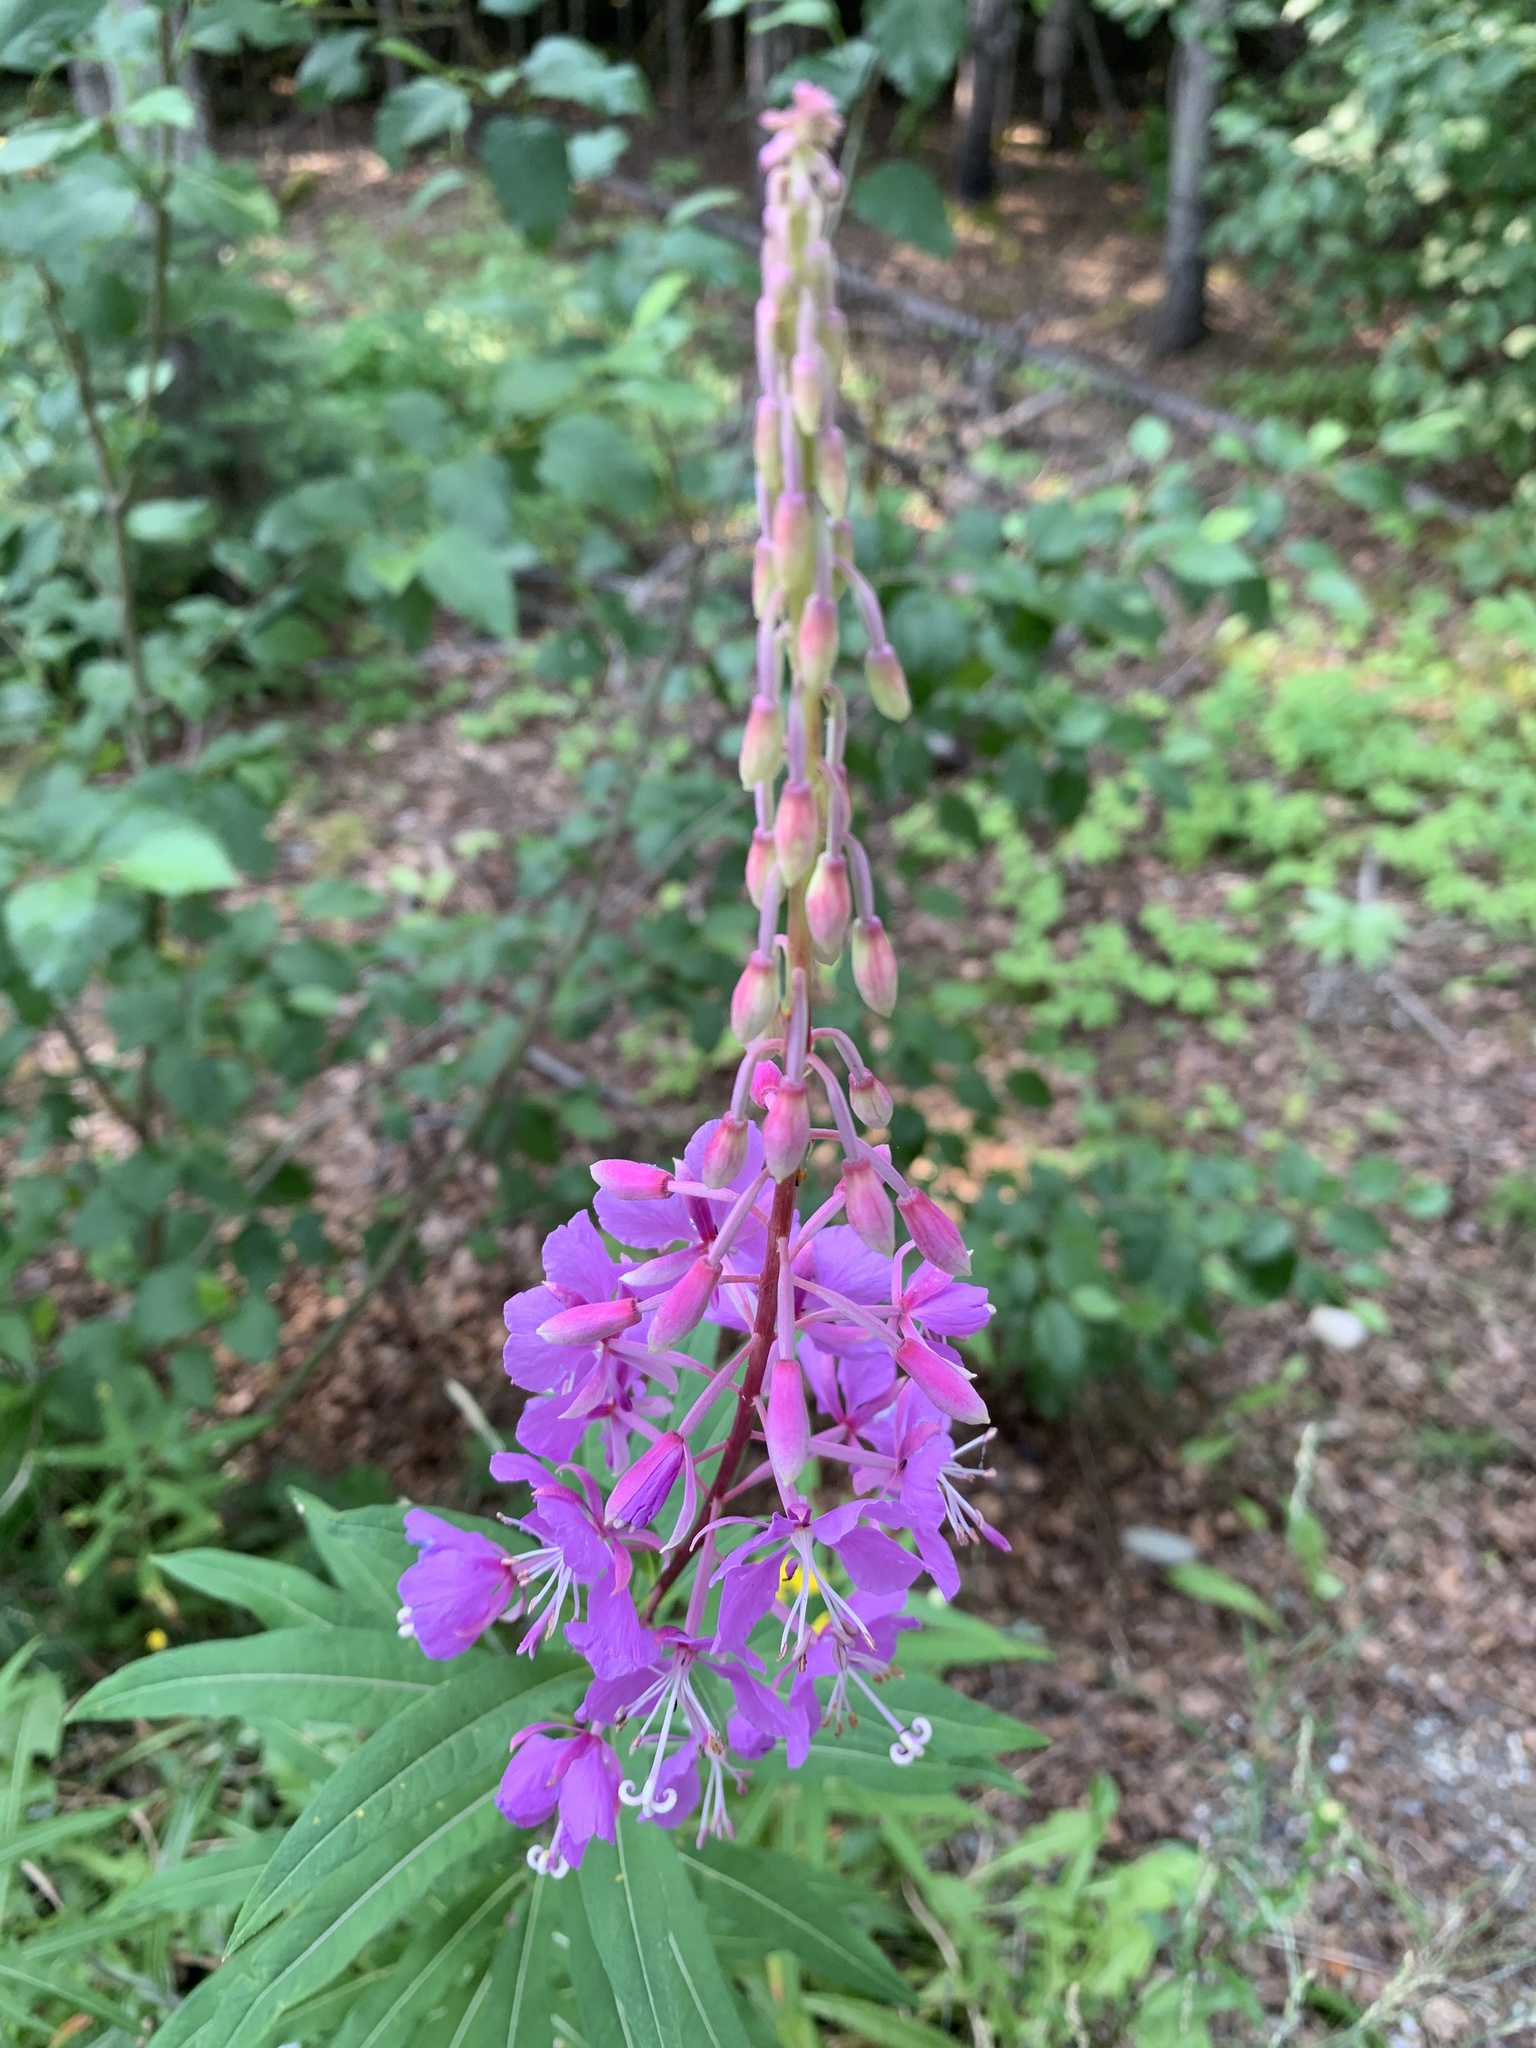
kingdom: Plantae
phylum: Tracheophyta
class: Magnoliopsida
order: Myrtales
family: Onagraceae
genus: Chamaenerion
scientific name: Chamaenerion angustifolium
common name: Fireweed
